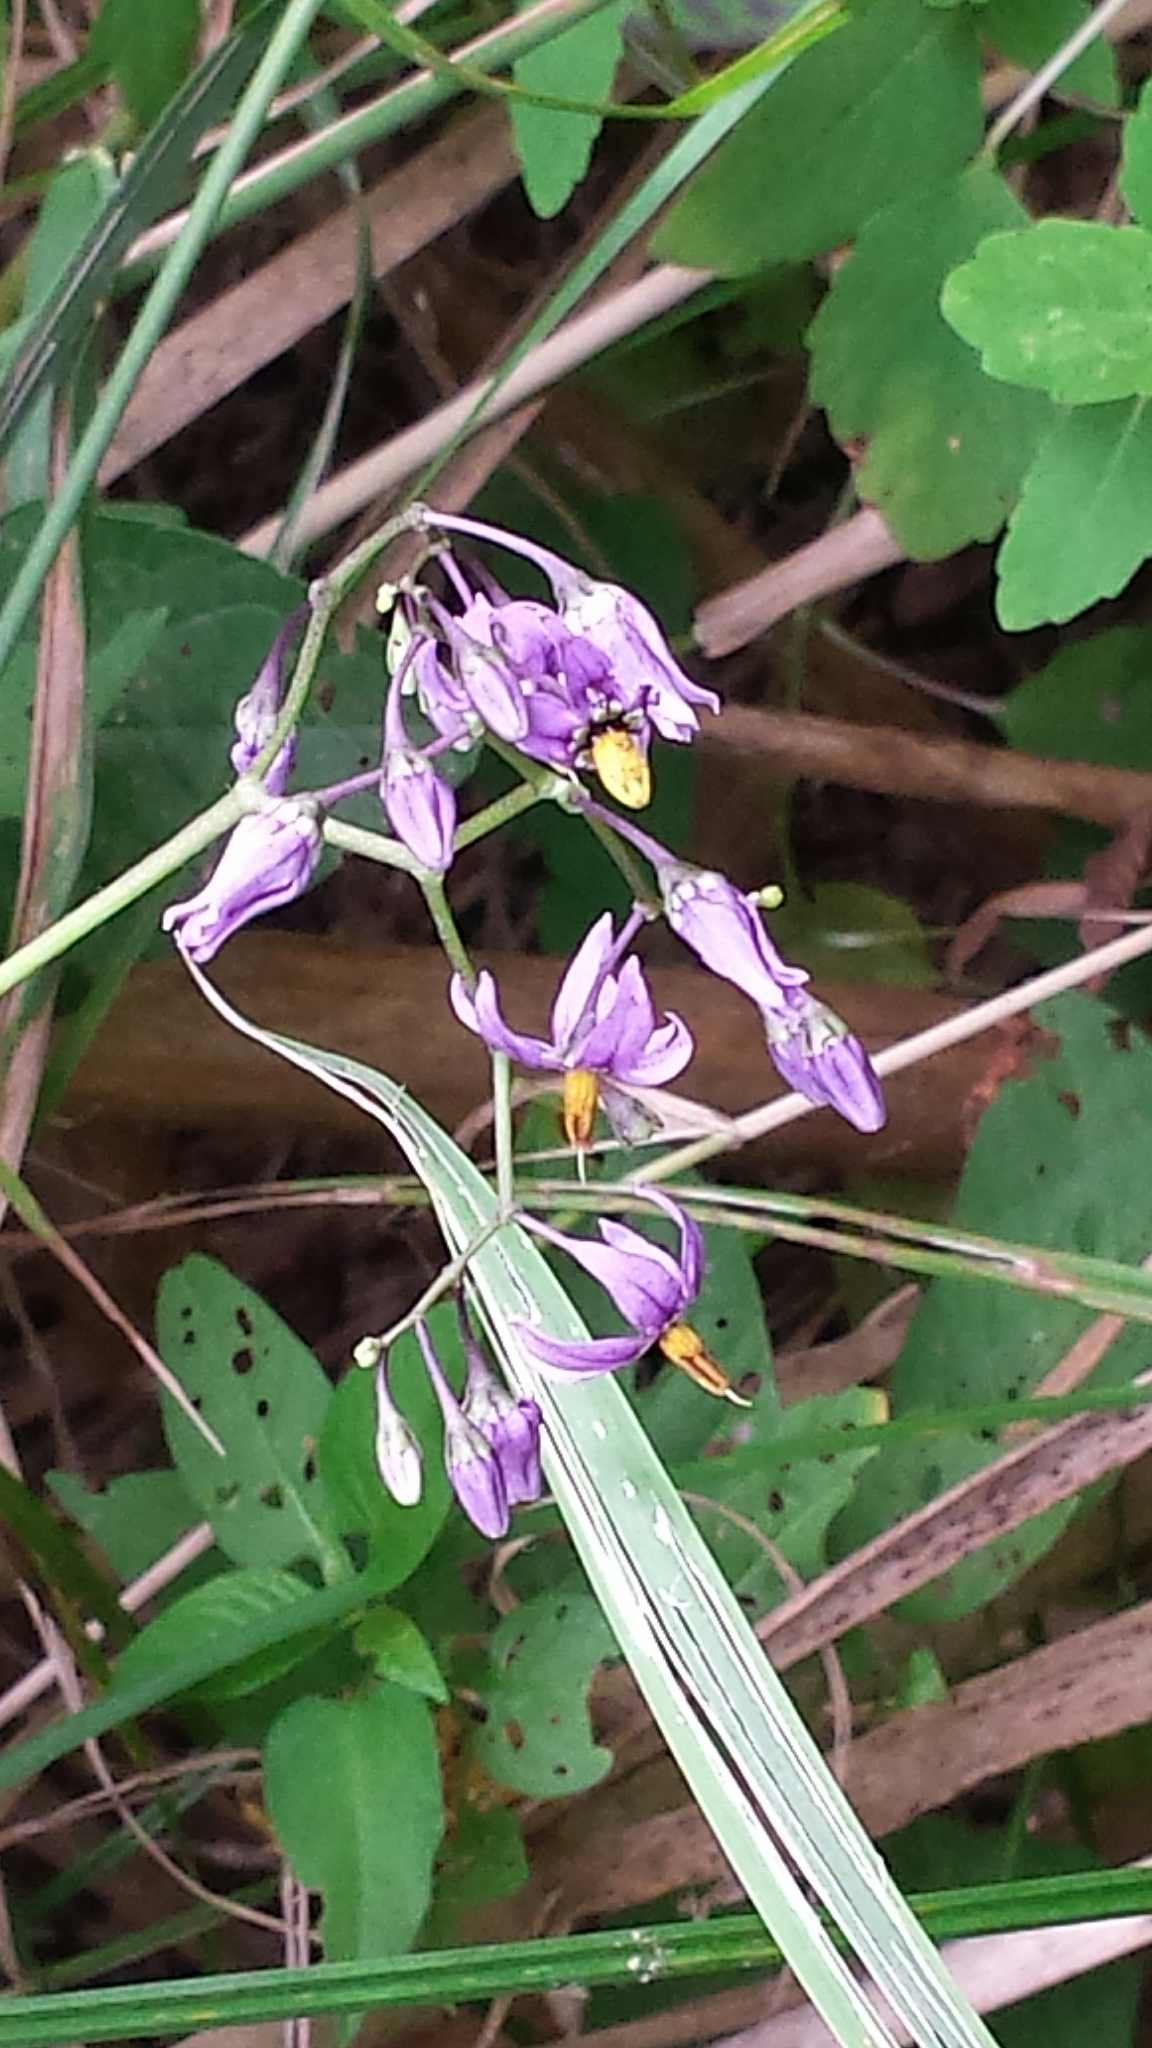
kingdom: Plantae
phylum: Tracheophyta
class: Magnoliopsida
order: Solanales
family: Solanaceae
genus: Solanum
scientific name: Solanum dulcamara
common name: Climbing nightshade
